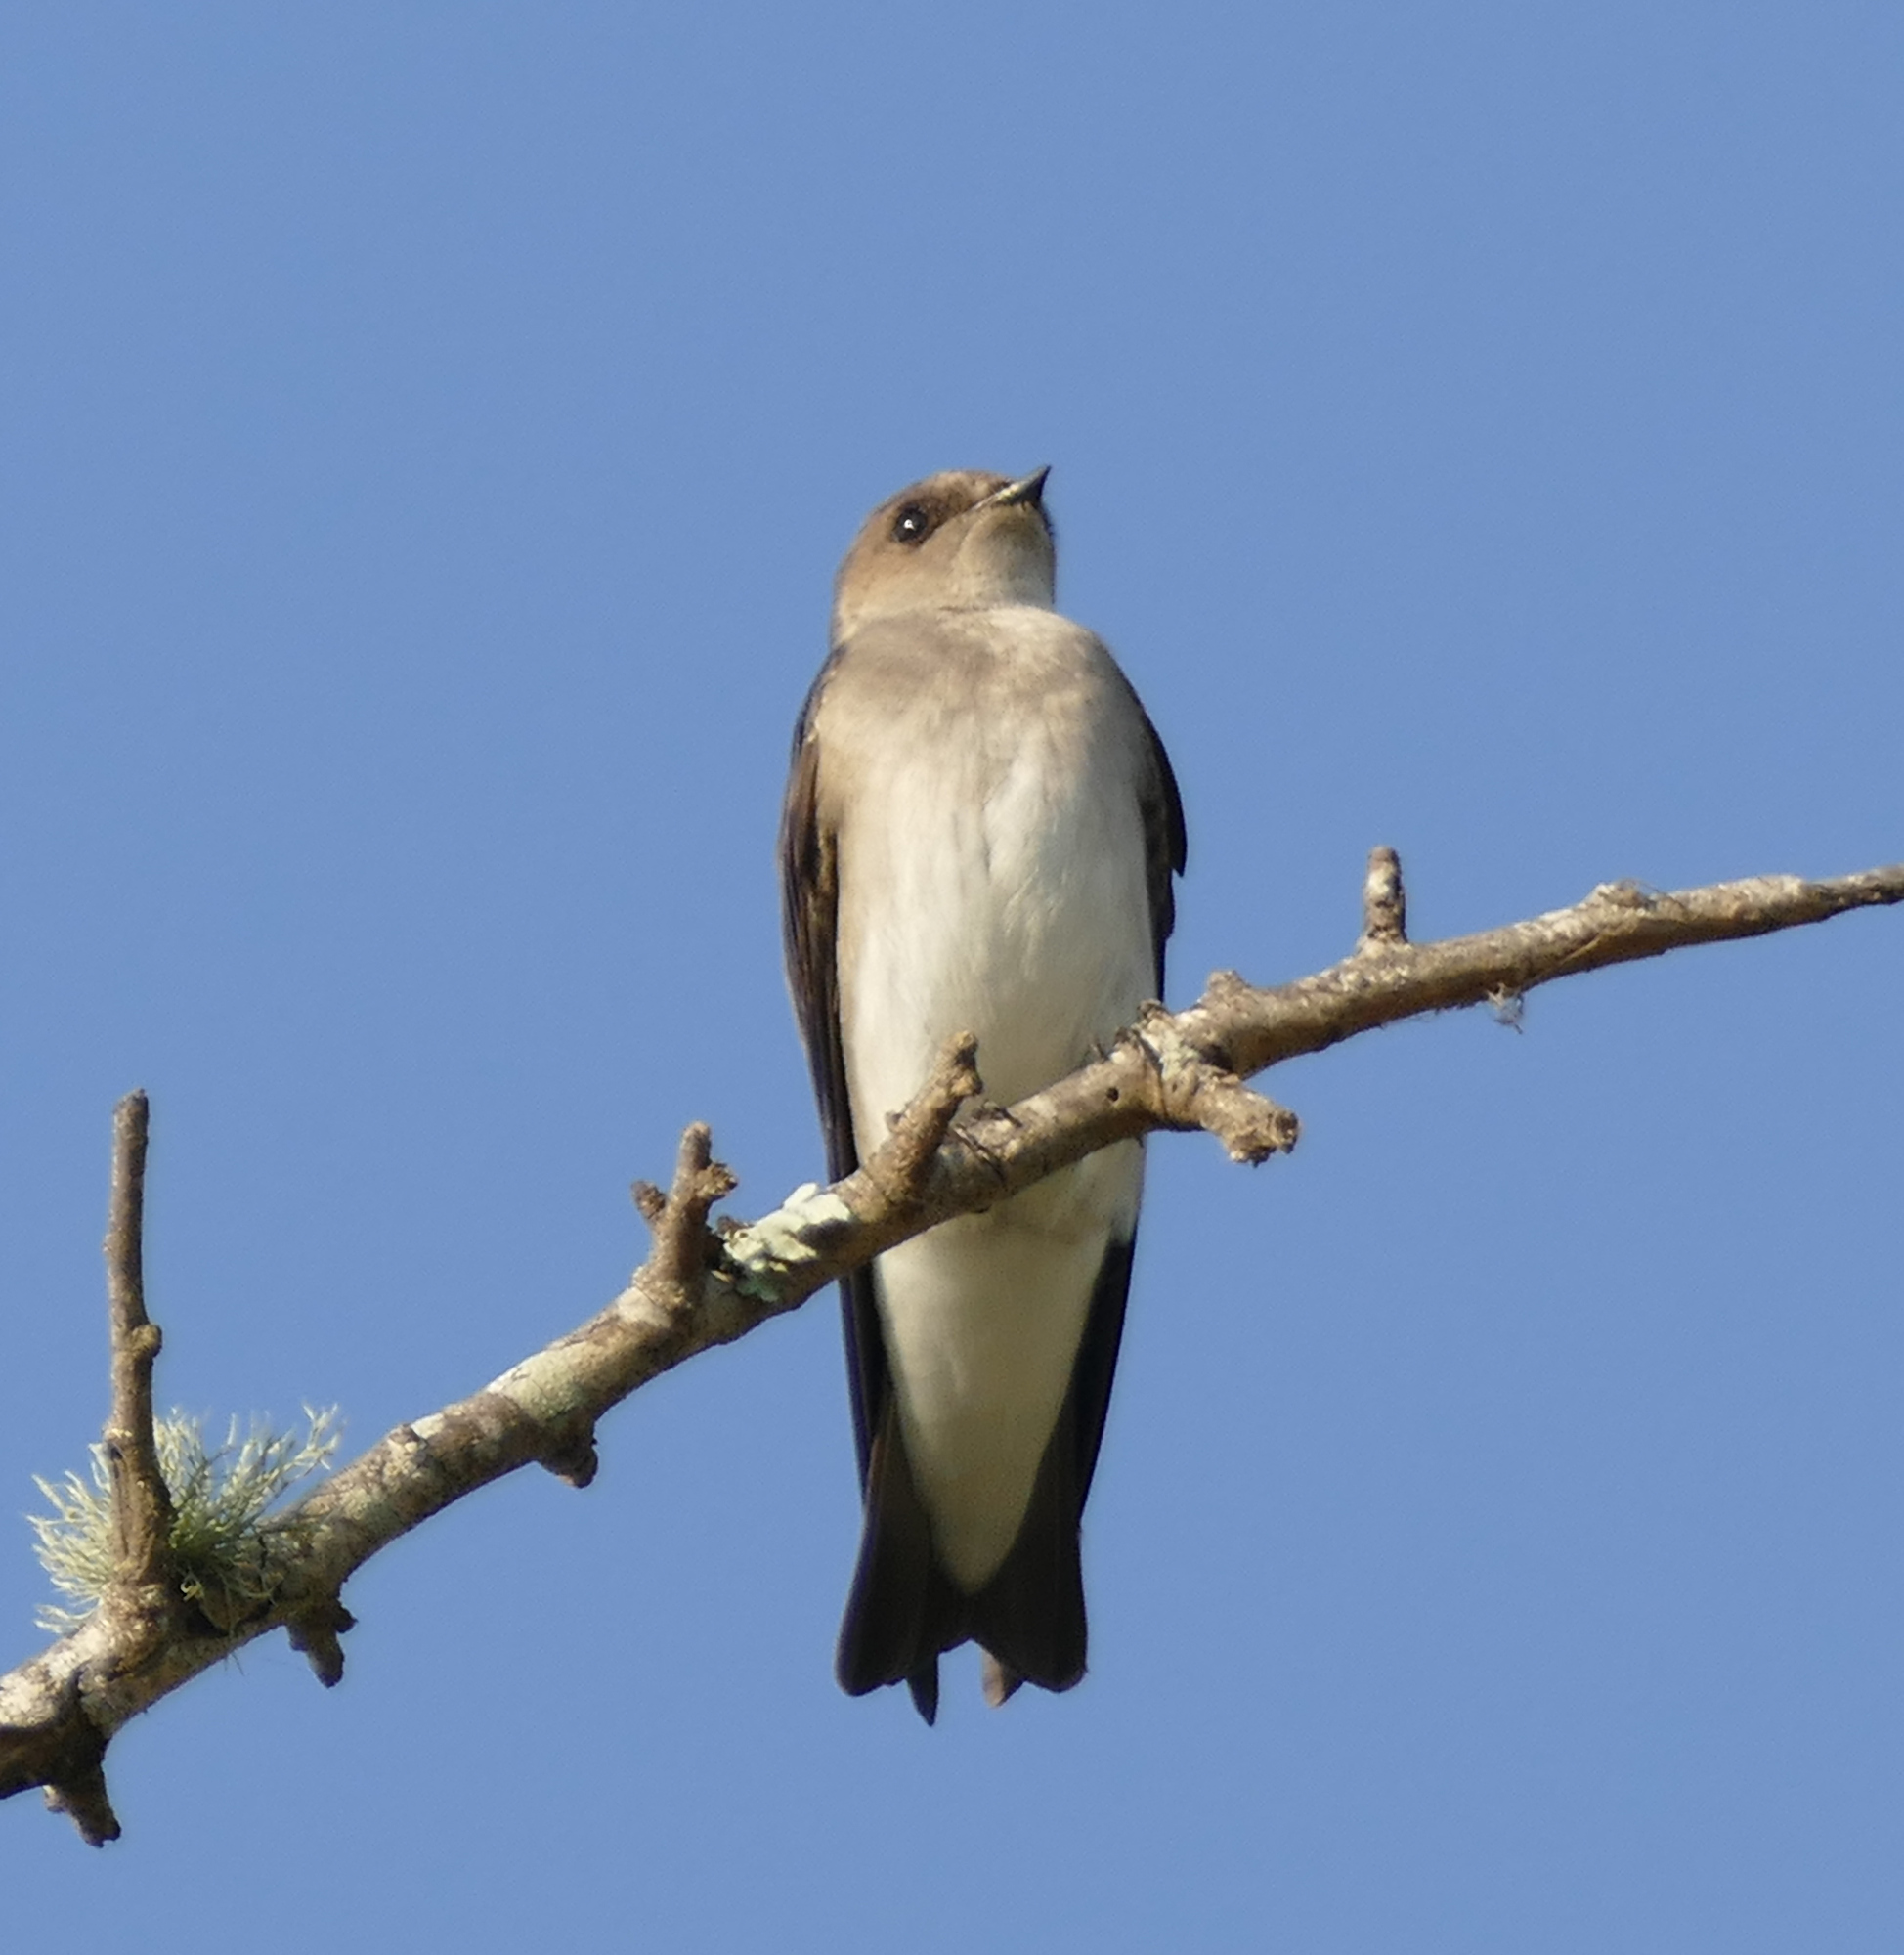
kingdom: Animalia
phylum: Chordata
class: Aves
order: Passeriformes
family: Hirundinidae
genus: Stelgidopteryx
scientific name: Stelgidopteryx serripennis
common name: Northern rough-winged swallow
